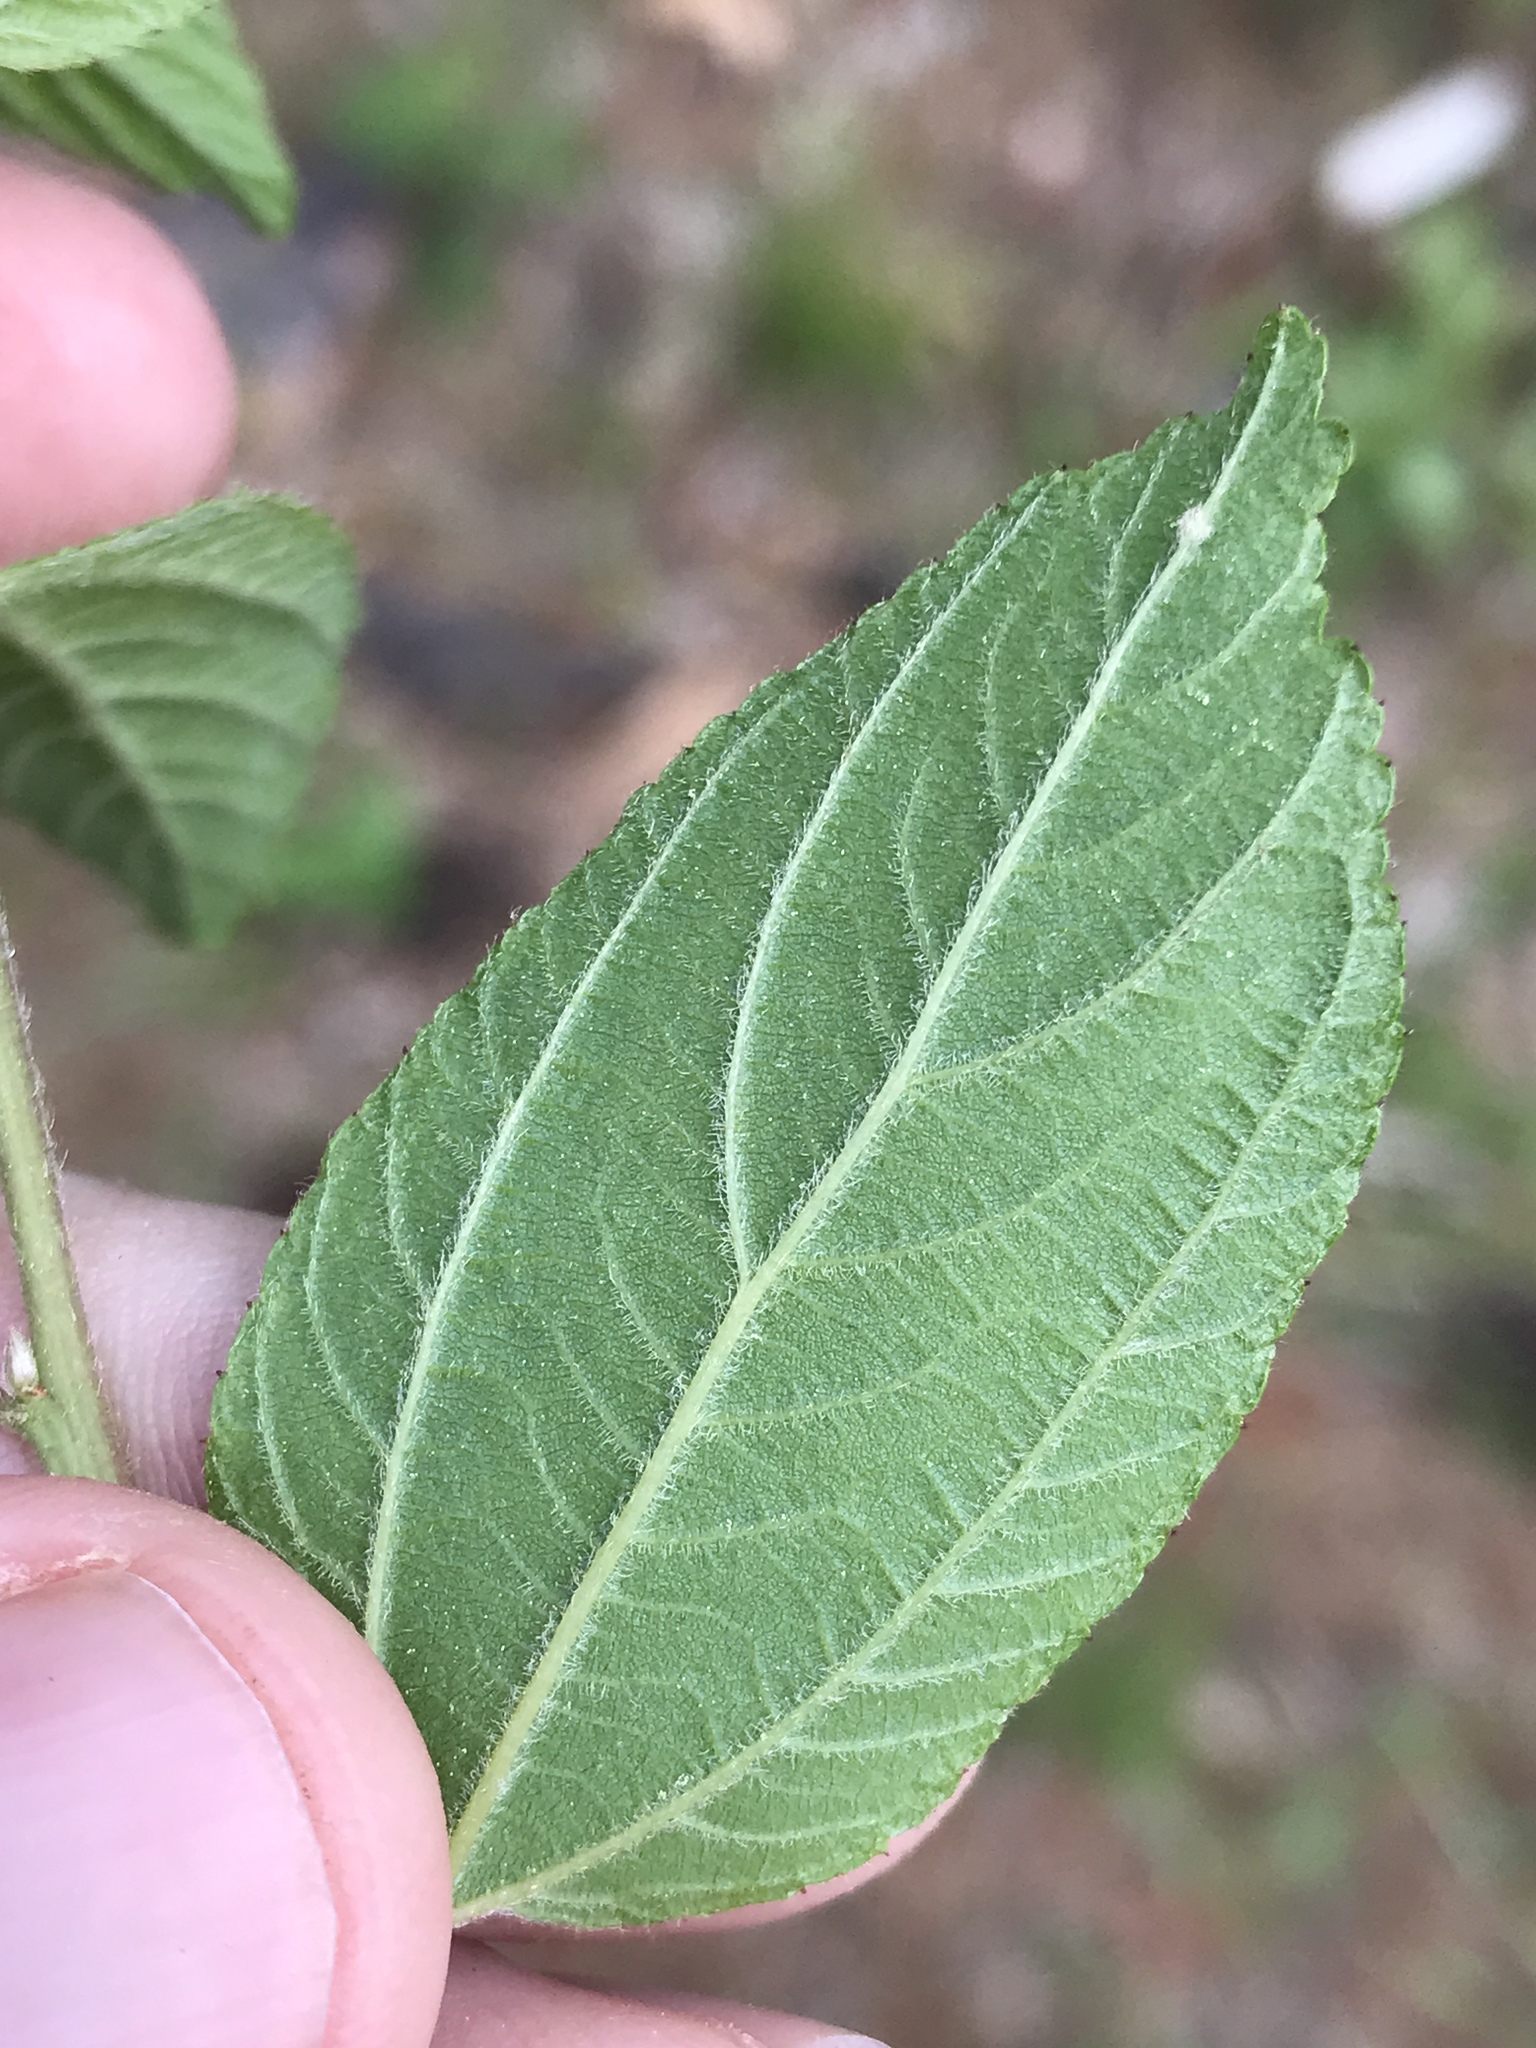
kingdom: Plantae
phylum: Tracheophyta
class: Magnoliopsida
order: Rosales
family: Rhamnaceae
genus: Ceanothus
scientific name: Ceanothus americanus
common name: Redroot
